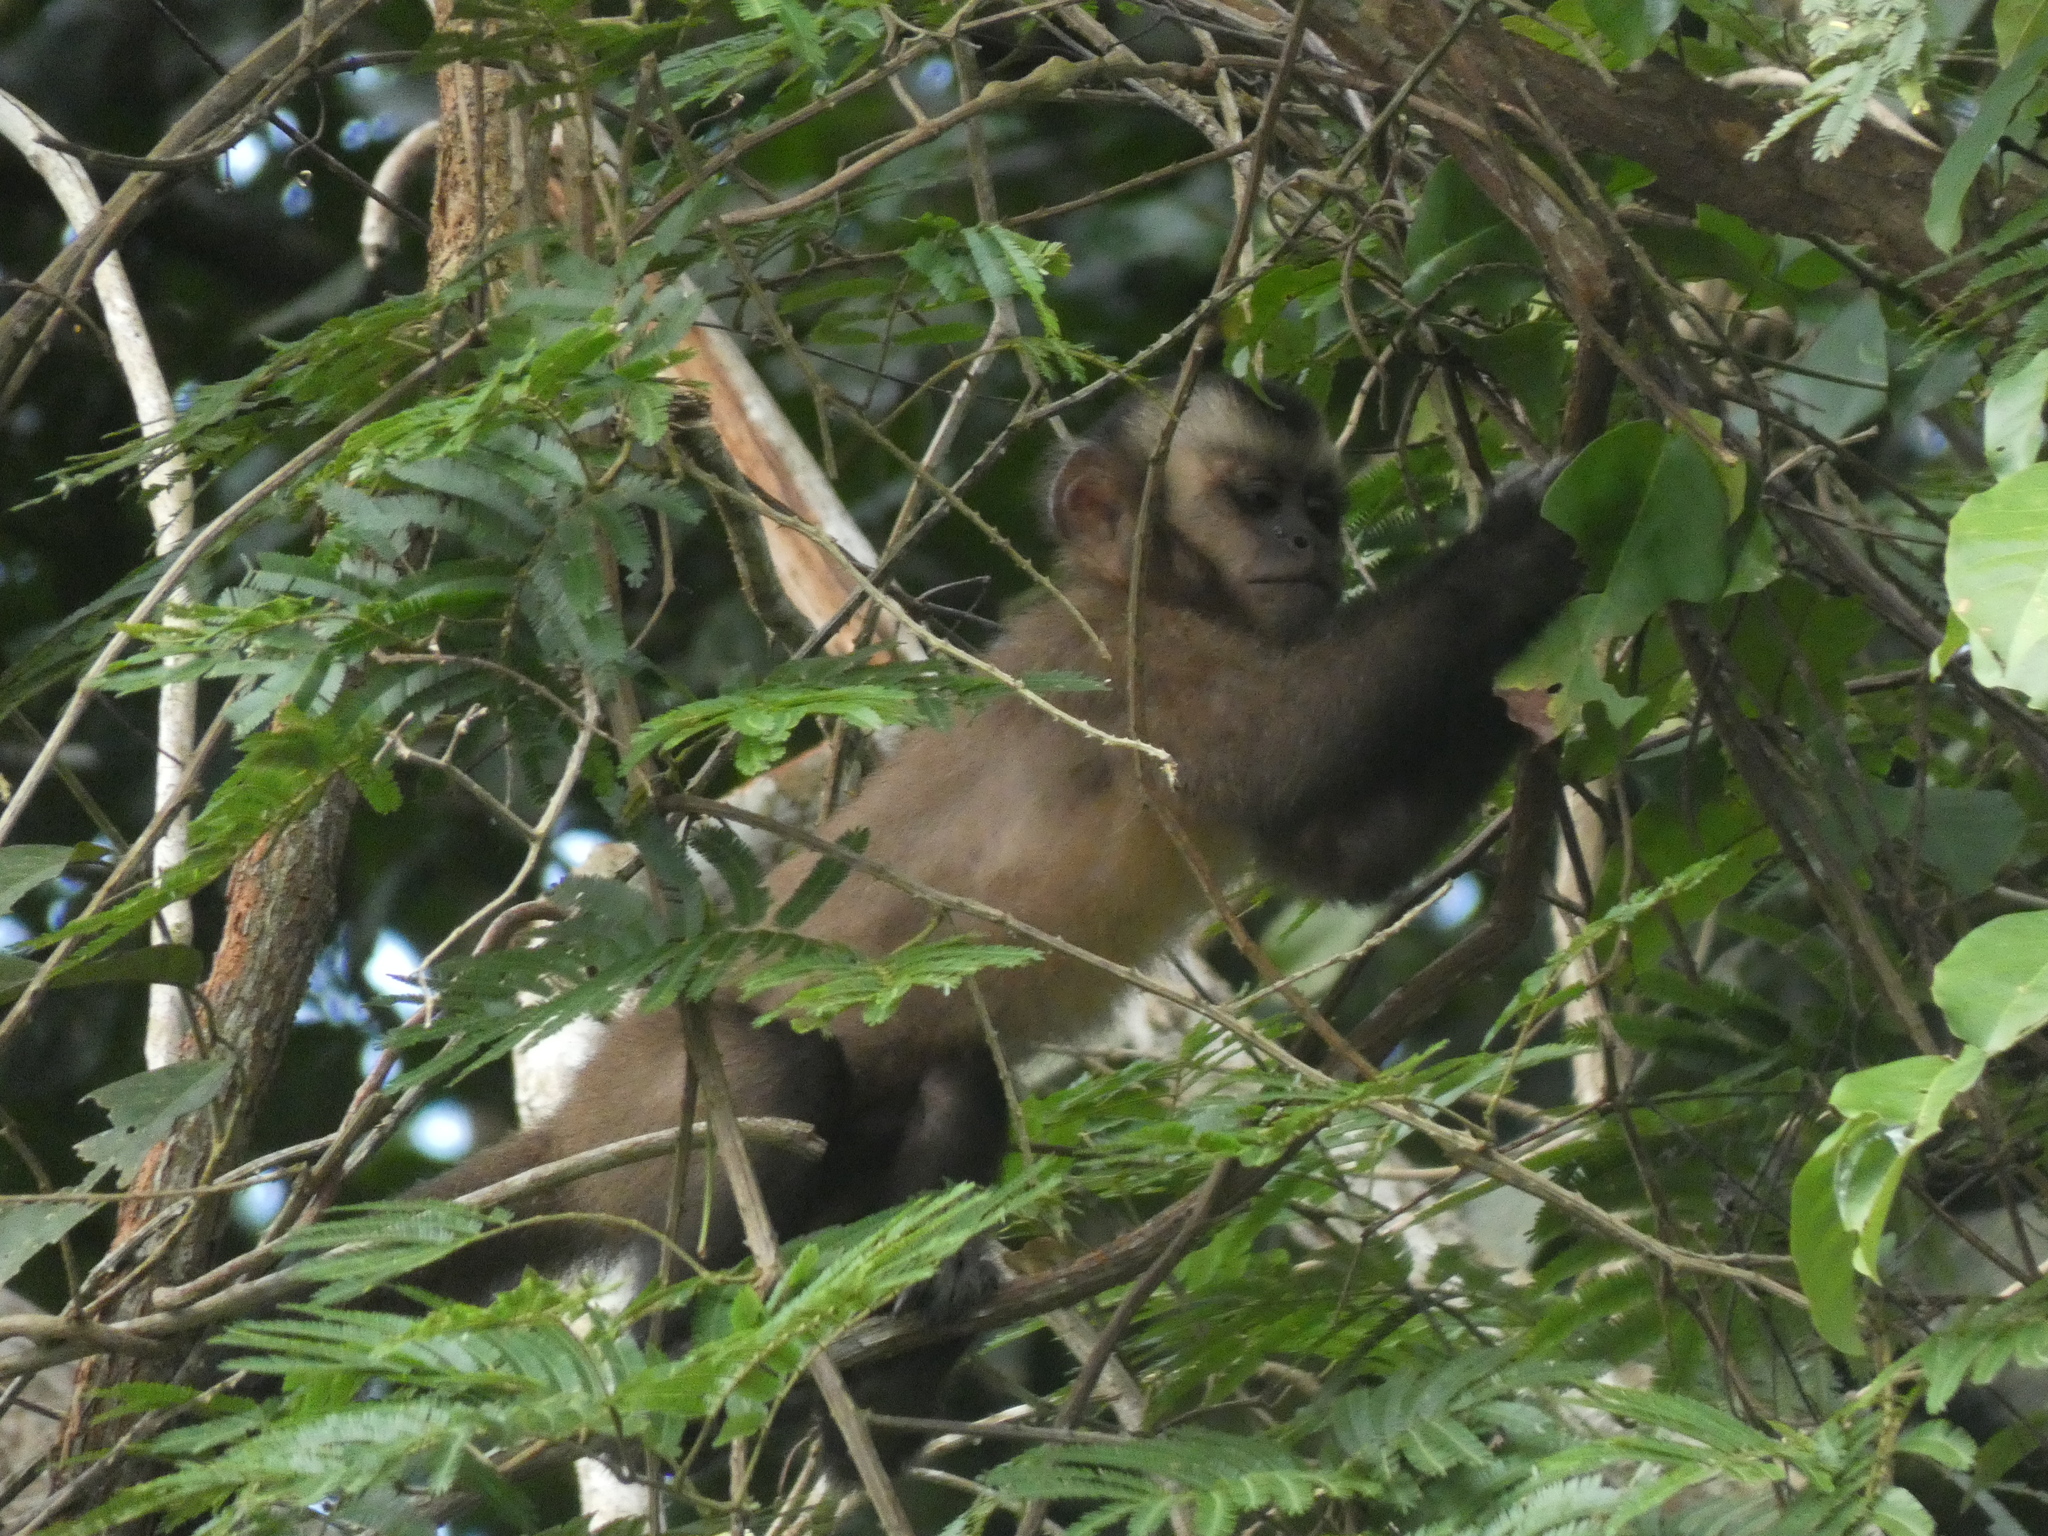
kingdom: Animalia
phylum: Chordata
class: Mammalia
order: Primates
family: Cebidae
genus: Sapajus
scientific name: Sapajus apella
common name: Tufted capuchin
